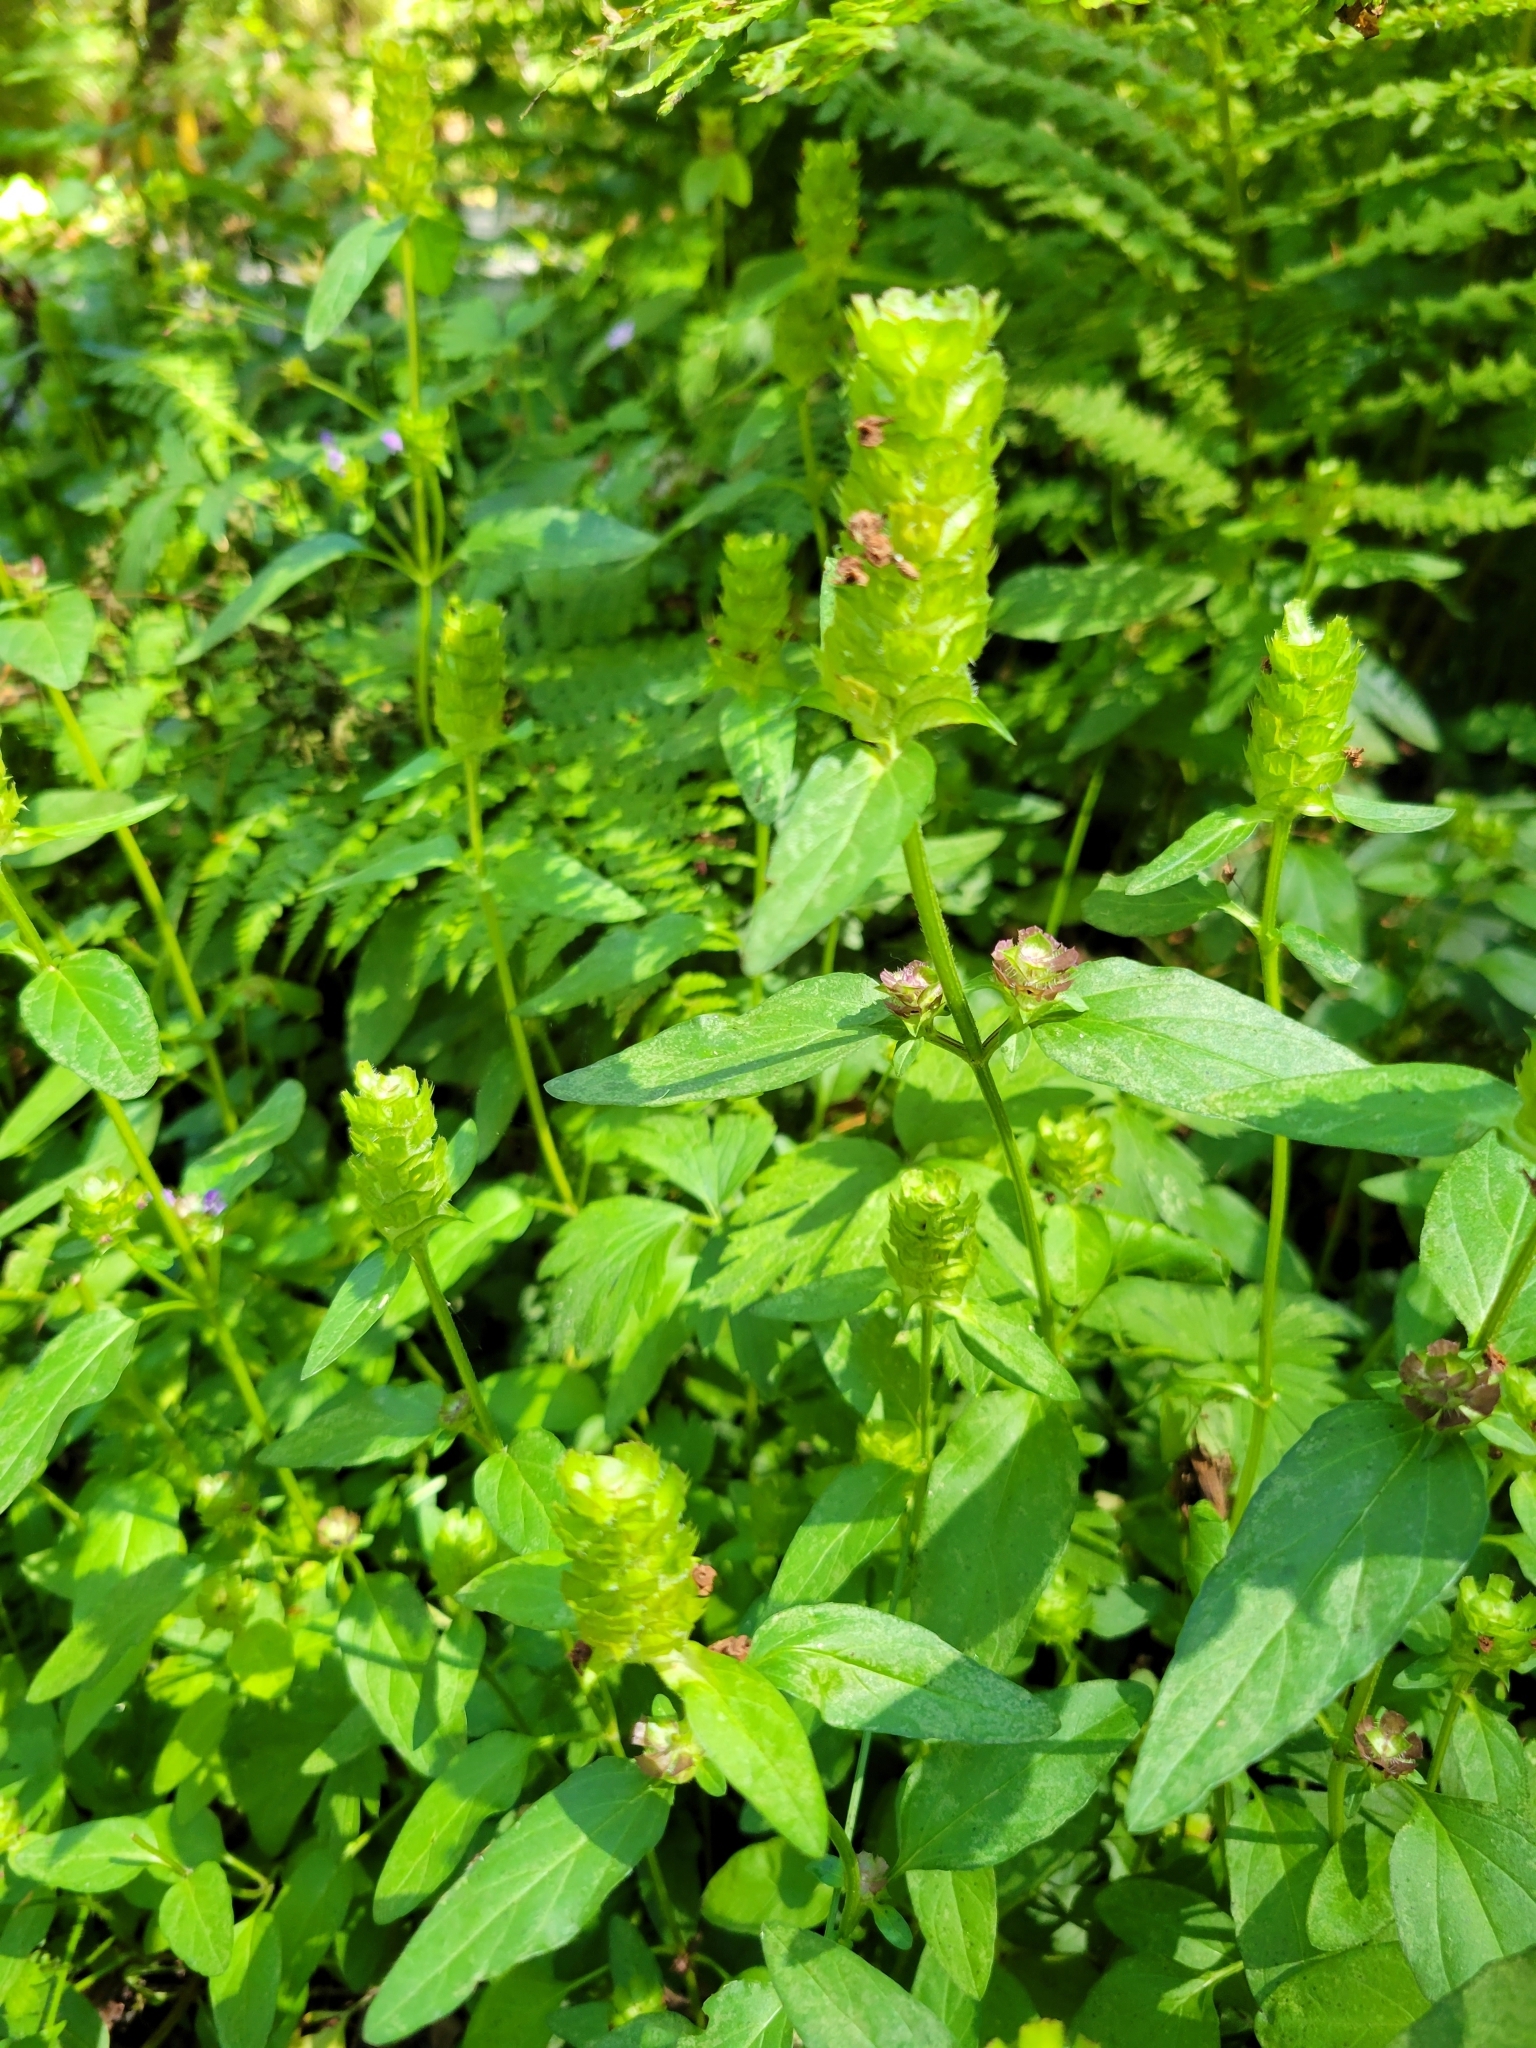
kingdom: Plantae
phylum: Tracheophyta
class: Magnoliopsida
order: Lamiales
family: Lamiaceae
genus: Prunella
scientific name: Prunella vulgaris
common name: Heal-all
